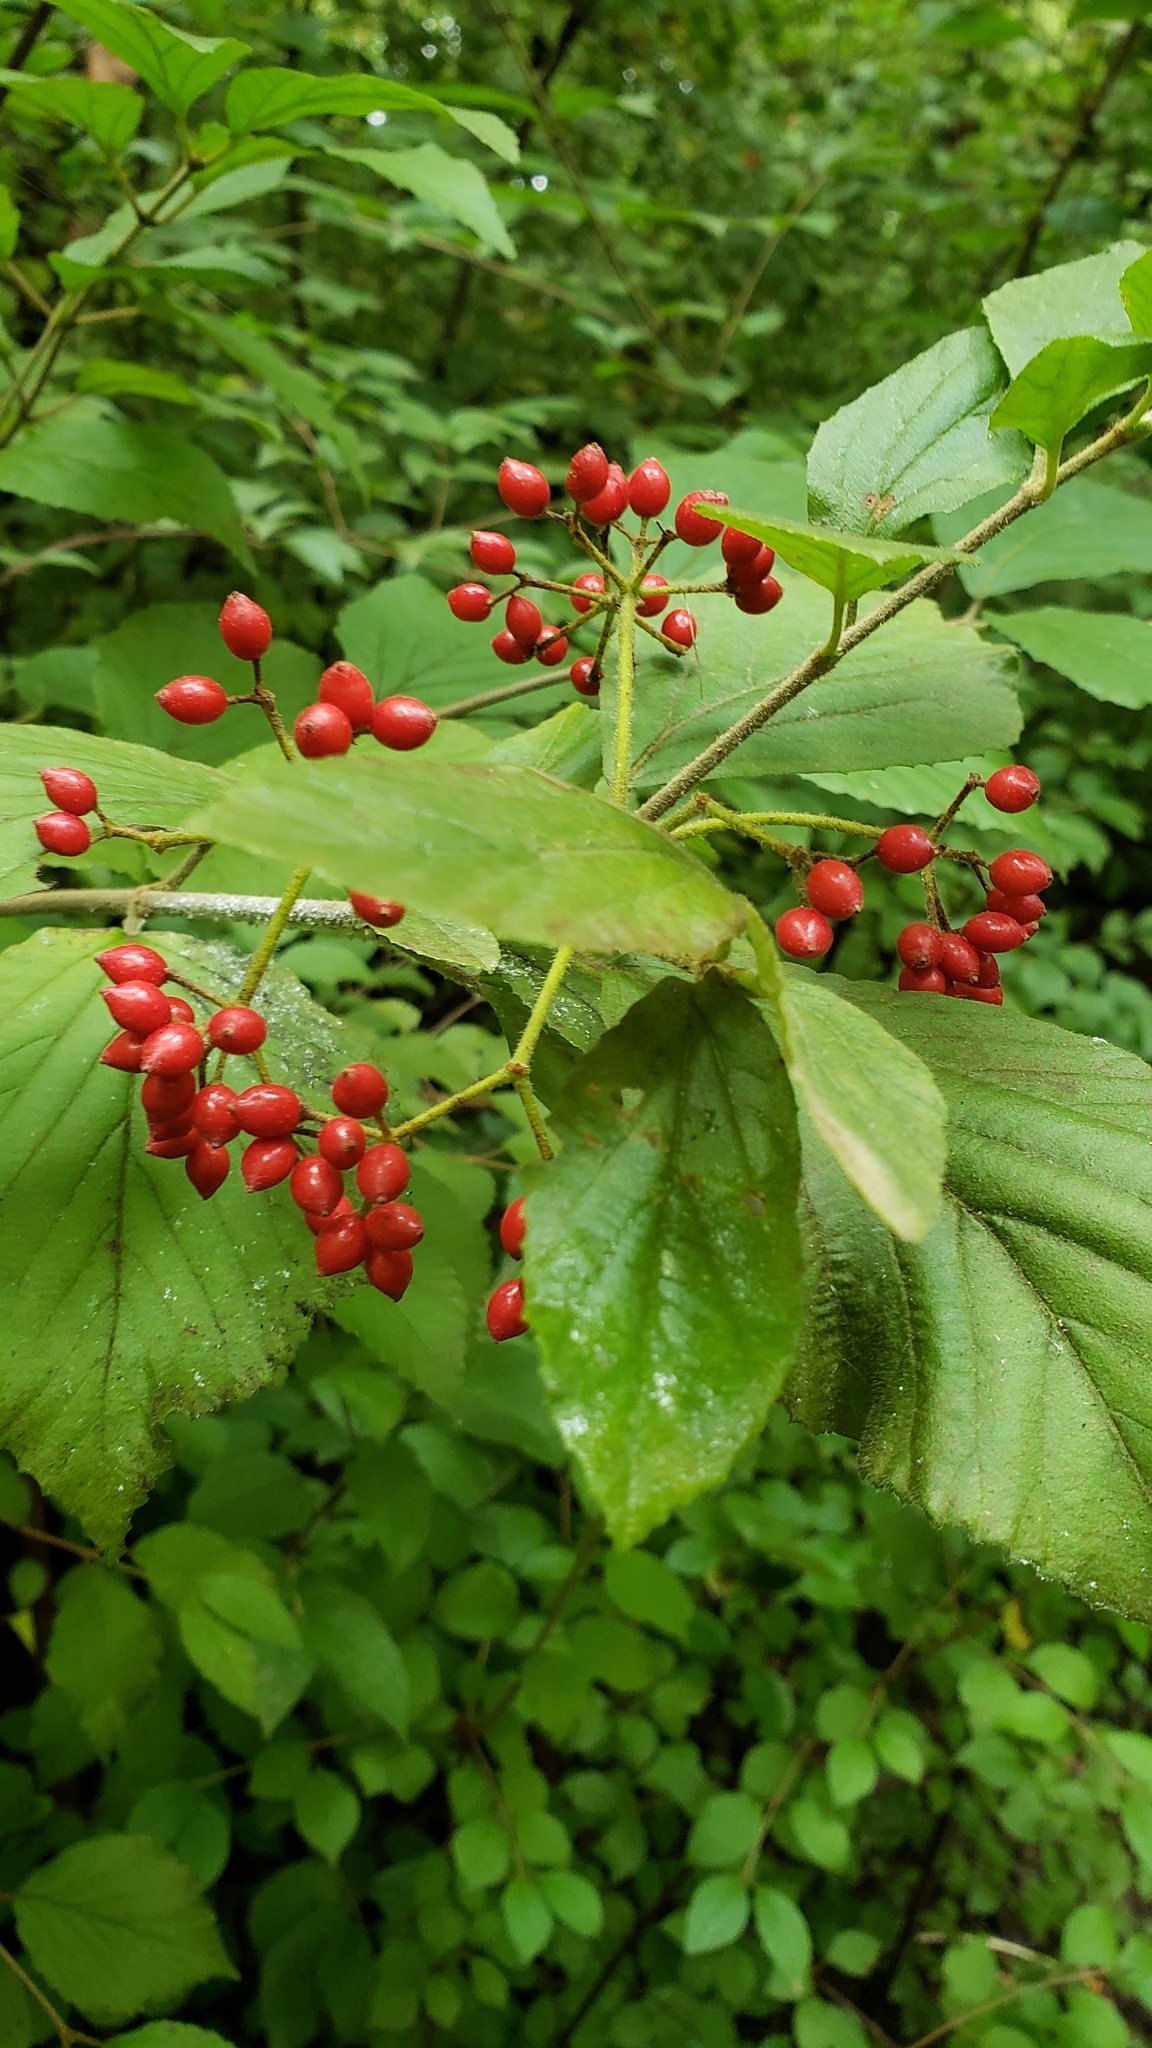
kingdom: Plantae
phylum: Tracheophyta
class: Magnoliopsida
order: Dipsacales
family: Viburnaceae
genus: Viburnum
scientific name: Viburnum dilatatum
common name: Linden arrowwood
